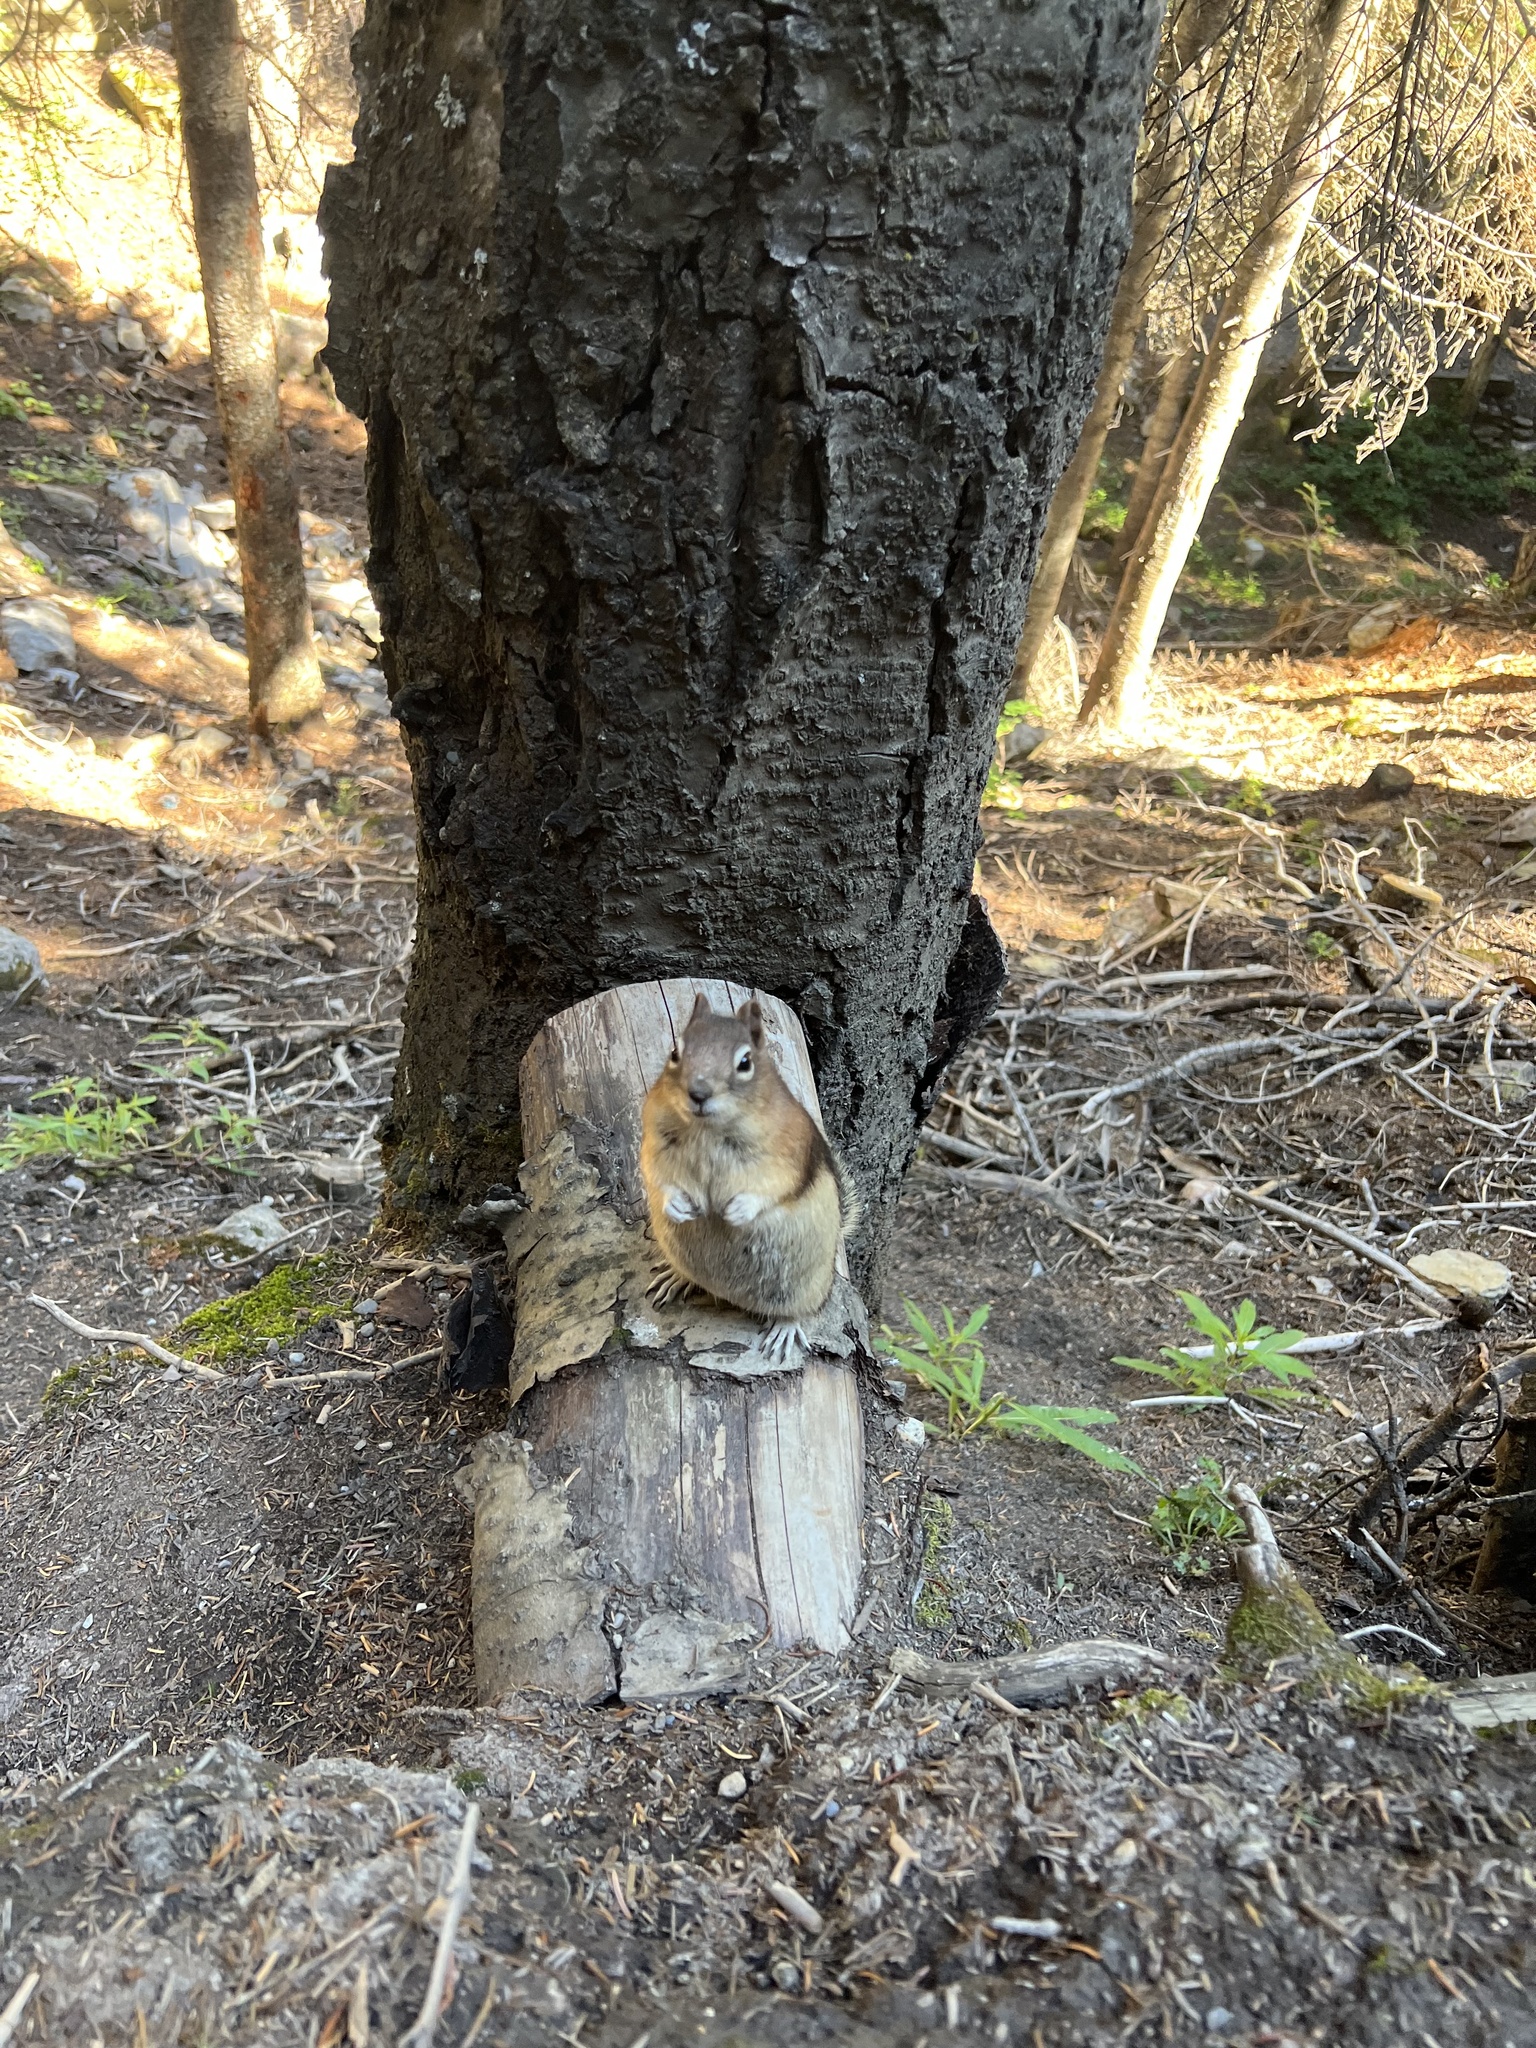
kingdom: Animalia
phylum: Chordata
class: Mammalia
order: Rodentia
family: Sciuridae
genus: Callospermophilus
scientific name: Callospermophilus lateralis
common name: Golden-mantled ground squirrel
